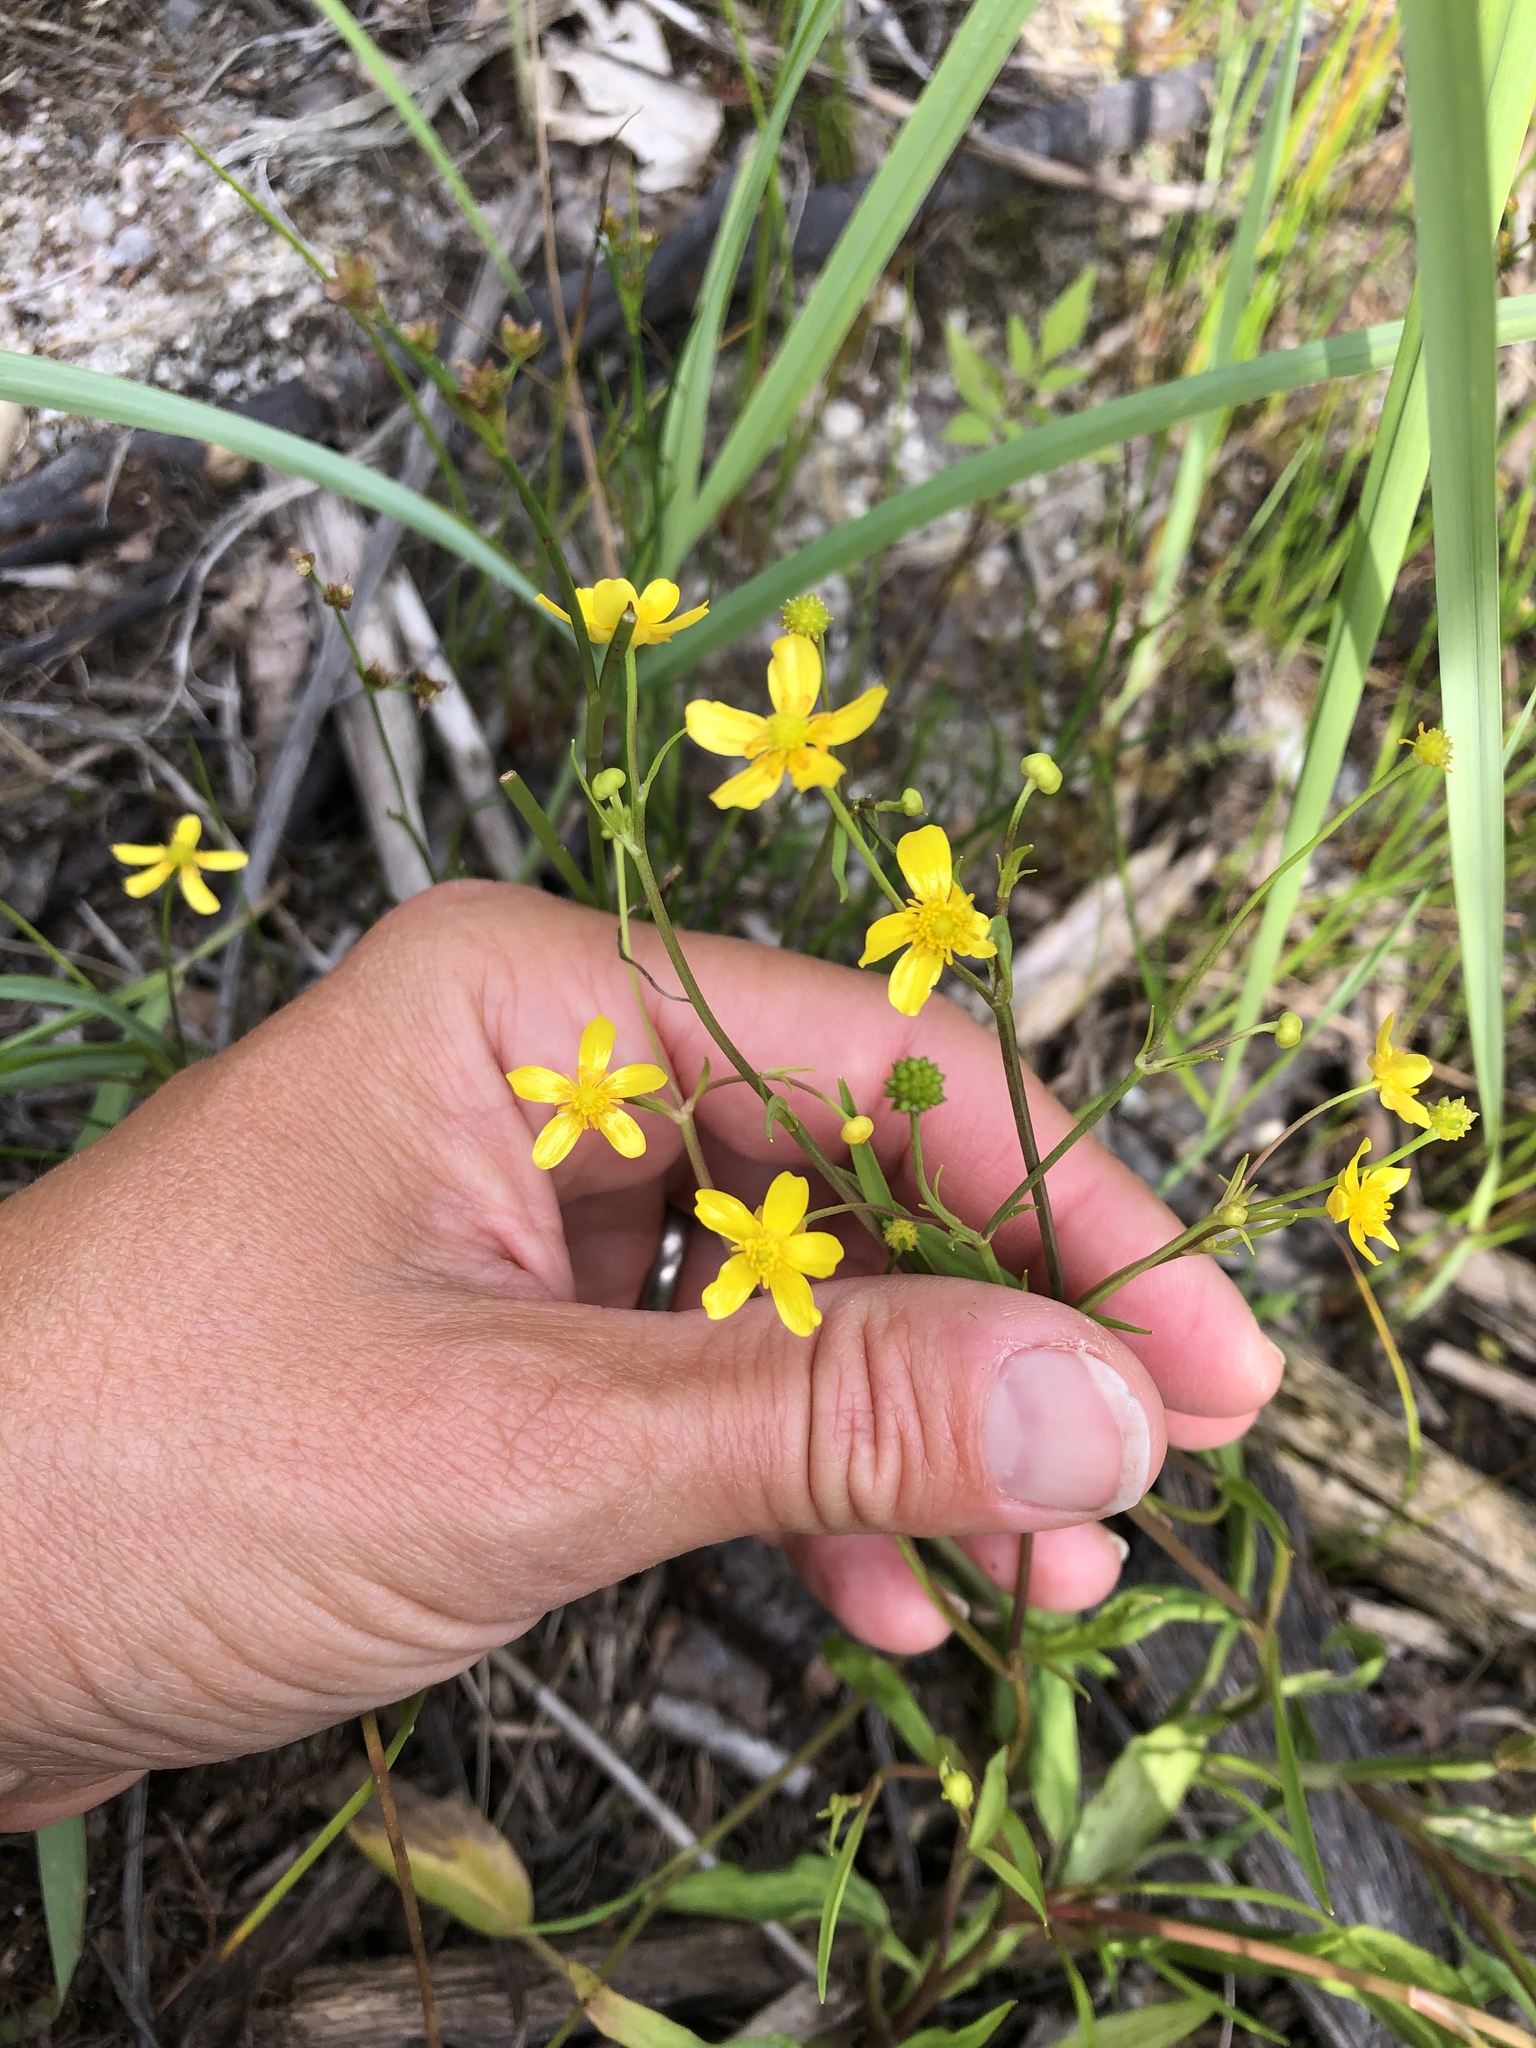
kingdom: Plantae
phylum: Tracheophyta
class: Magnoliopsida
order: Ranunculales
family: Ranunculaceae
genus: Ranunculus
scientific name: Ranunculus flammula
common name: Lesser spearwort
